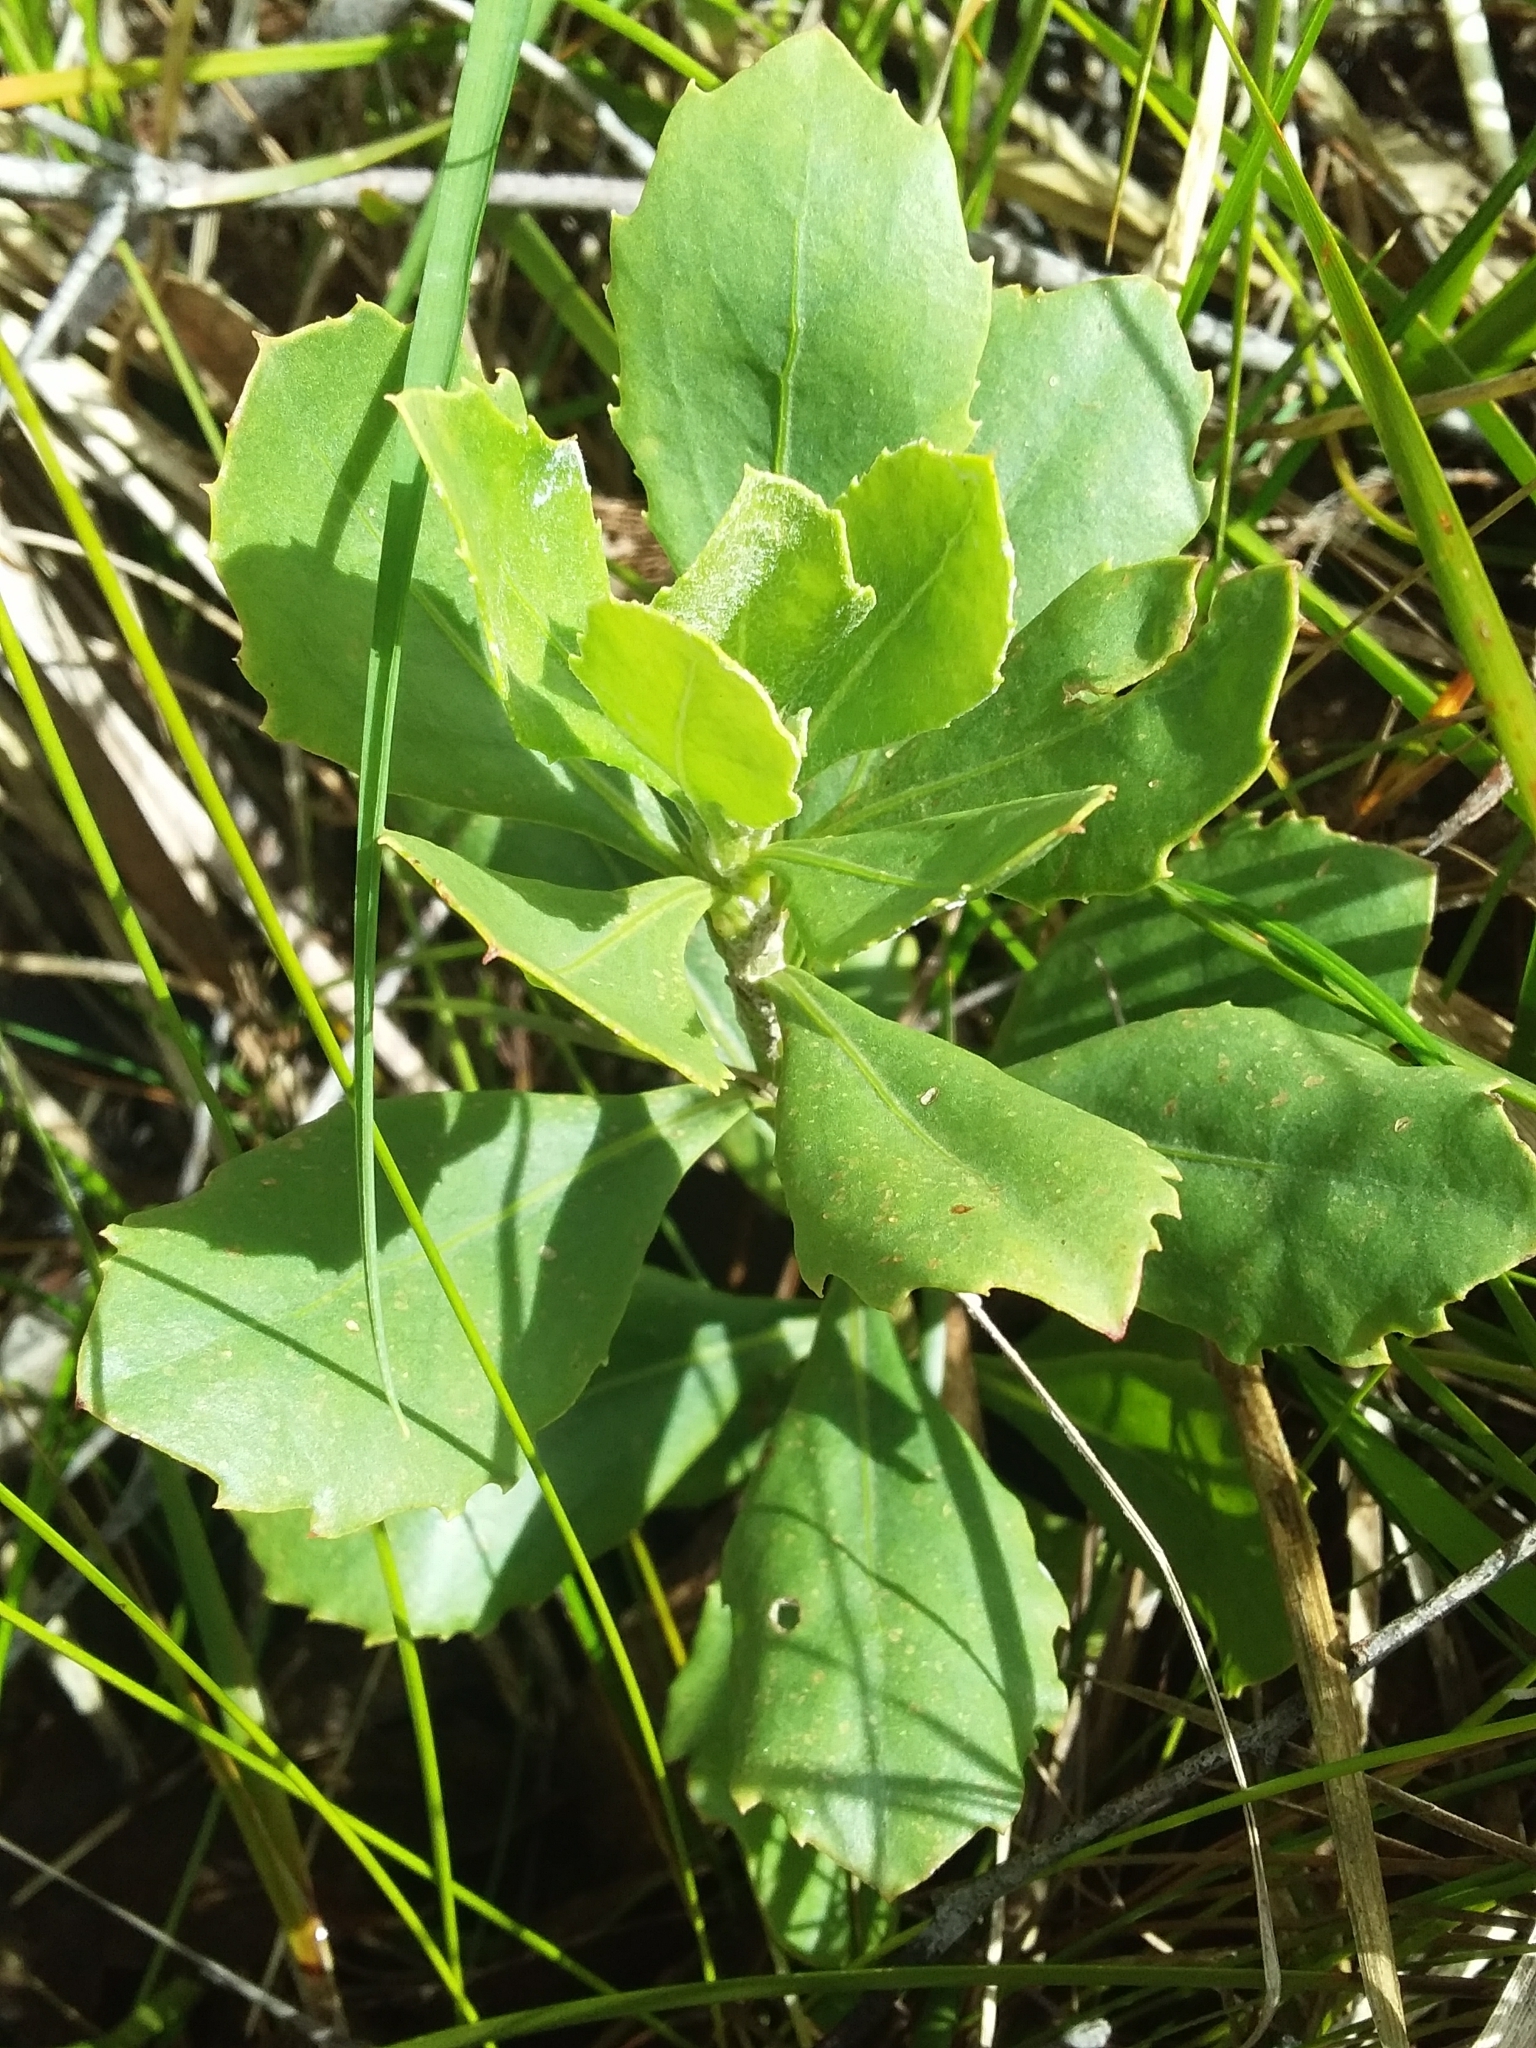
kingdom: Plantae
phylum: Tracheophyta
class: Magnoliopsida
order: Asterales
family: Asteraceae
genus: Osteospermum
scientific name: Osteospermum moniliferum
